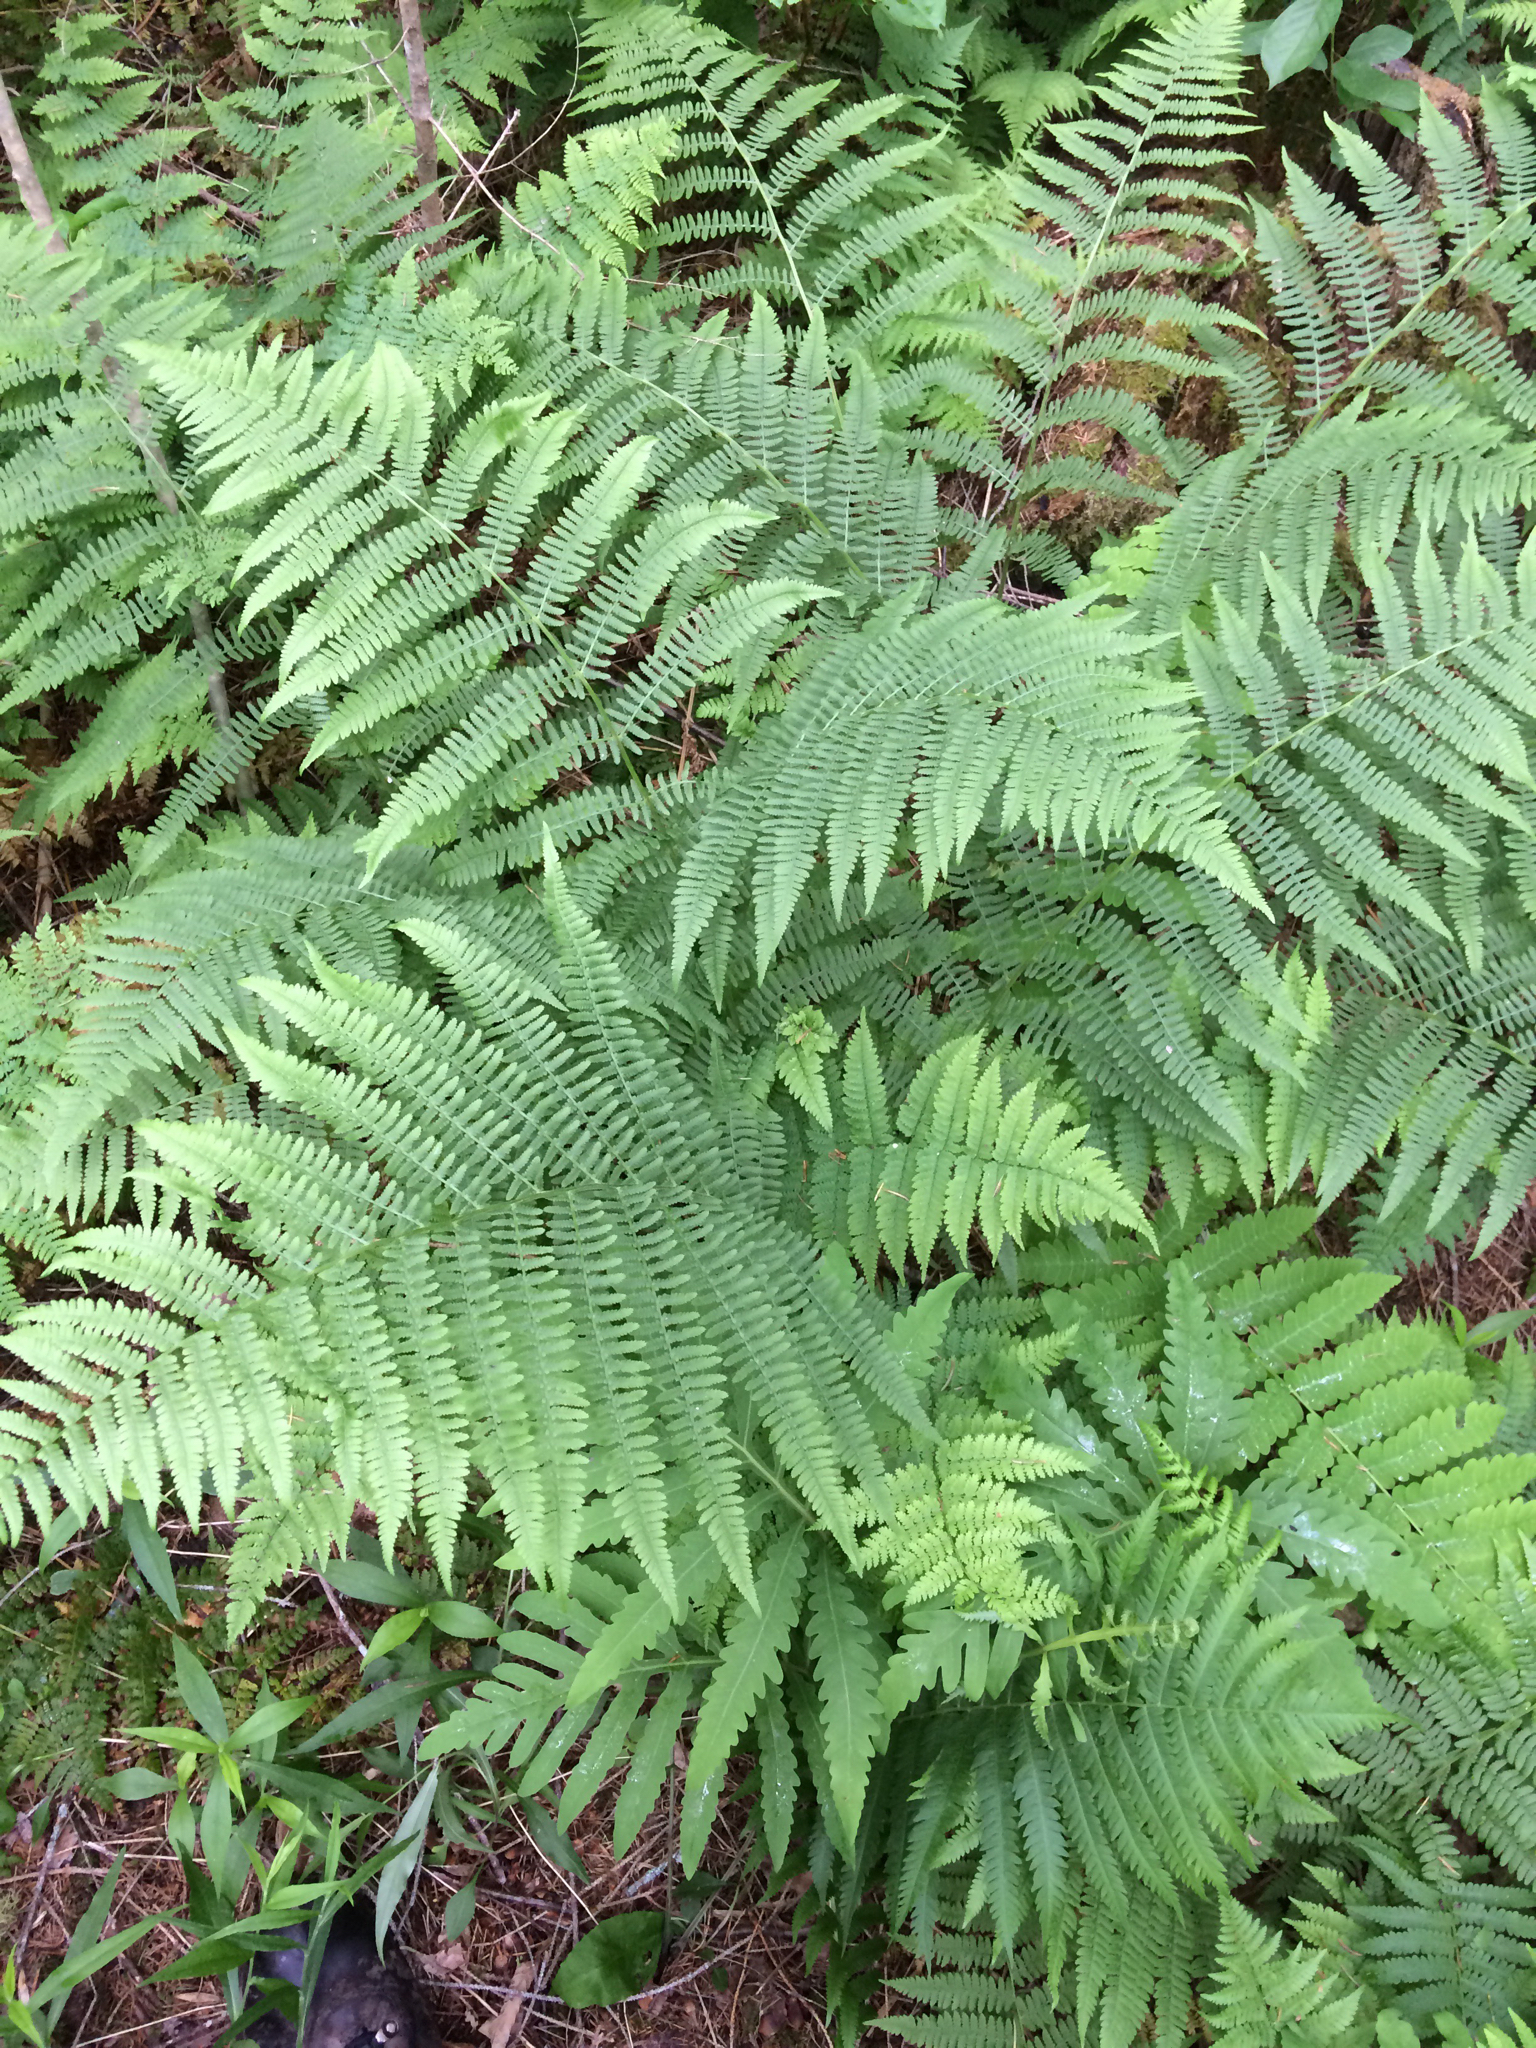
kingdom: Plantae
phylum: Tracheophyta
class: Polypodiopsida
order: Polypodiales
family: Athyriaceae
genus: Athyrium
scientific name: Athyrium angustum
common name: Northern lady fern
